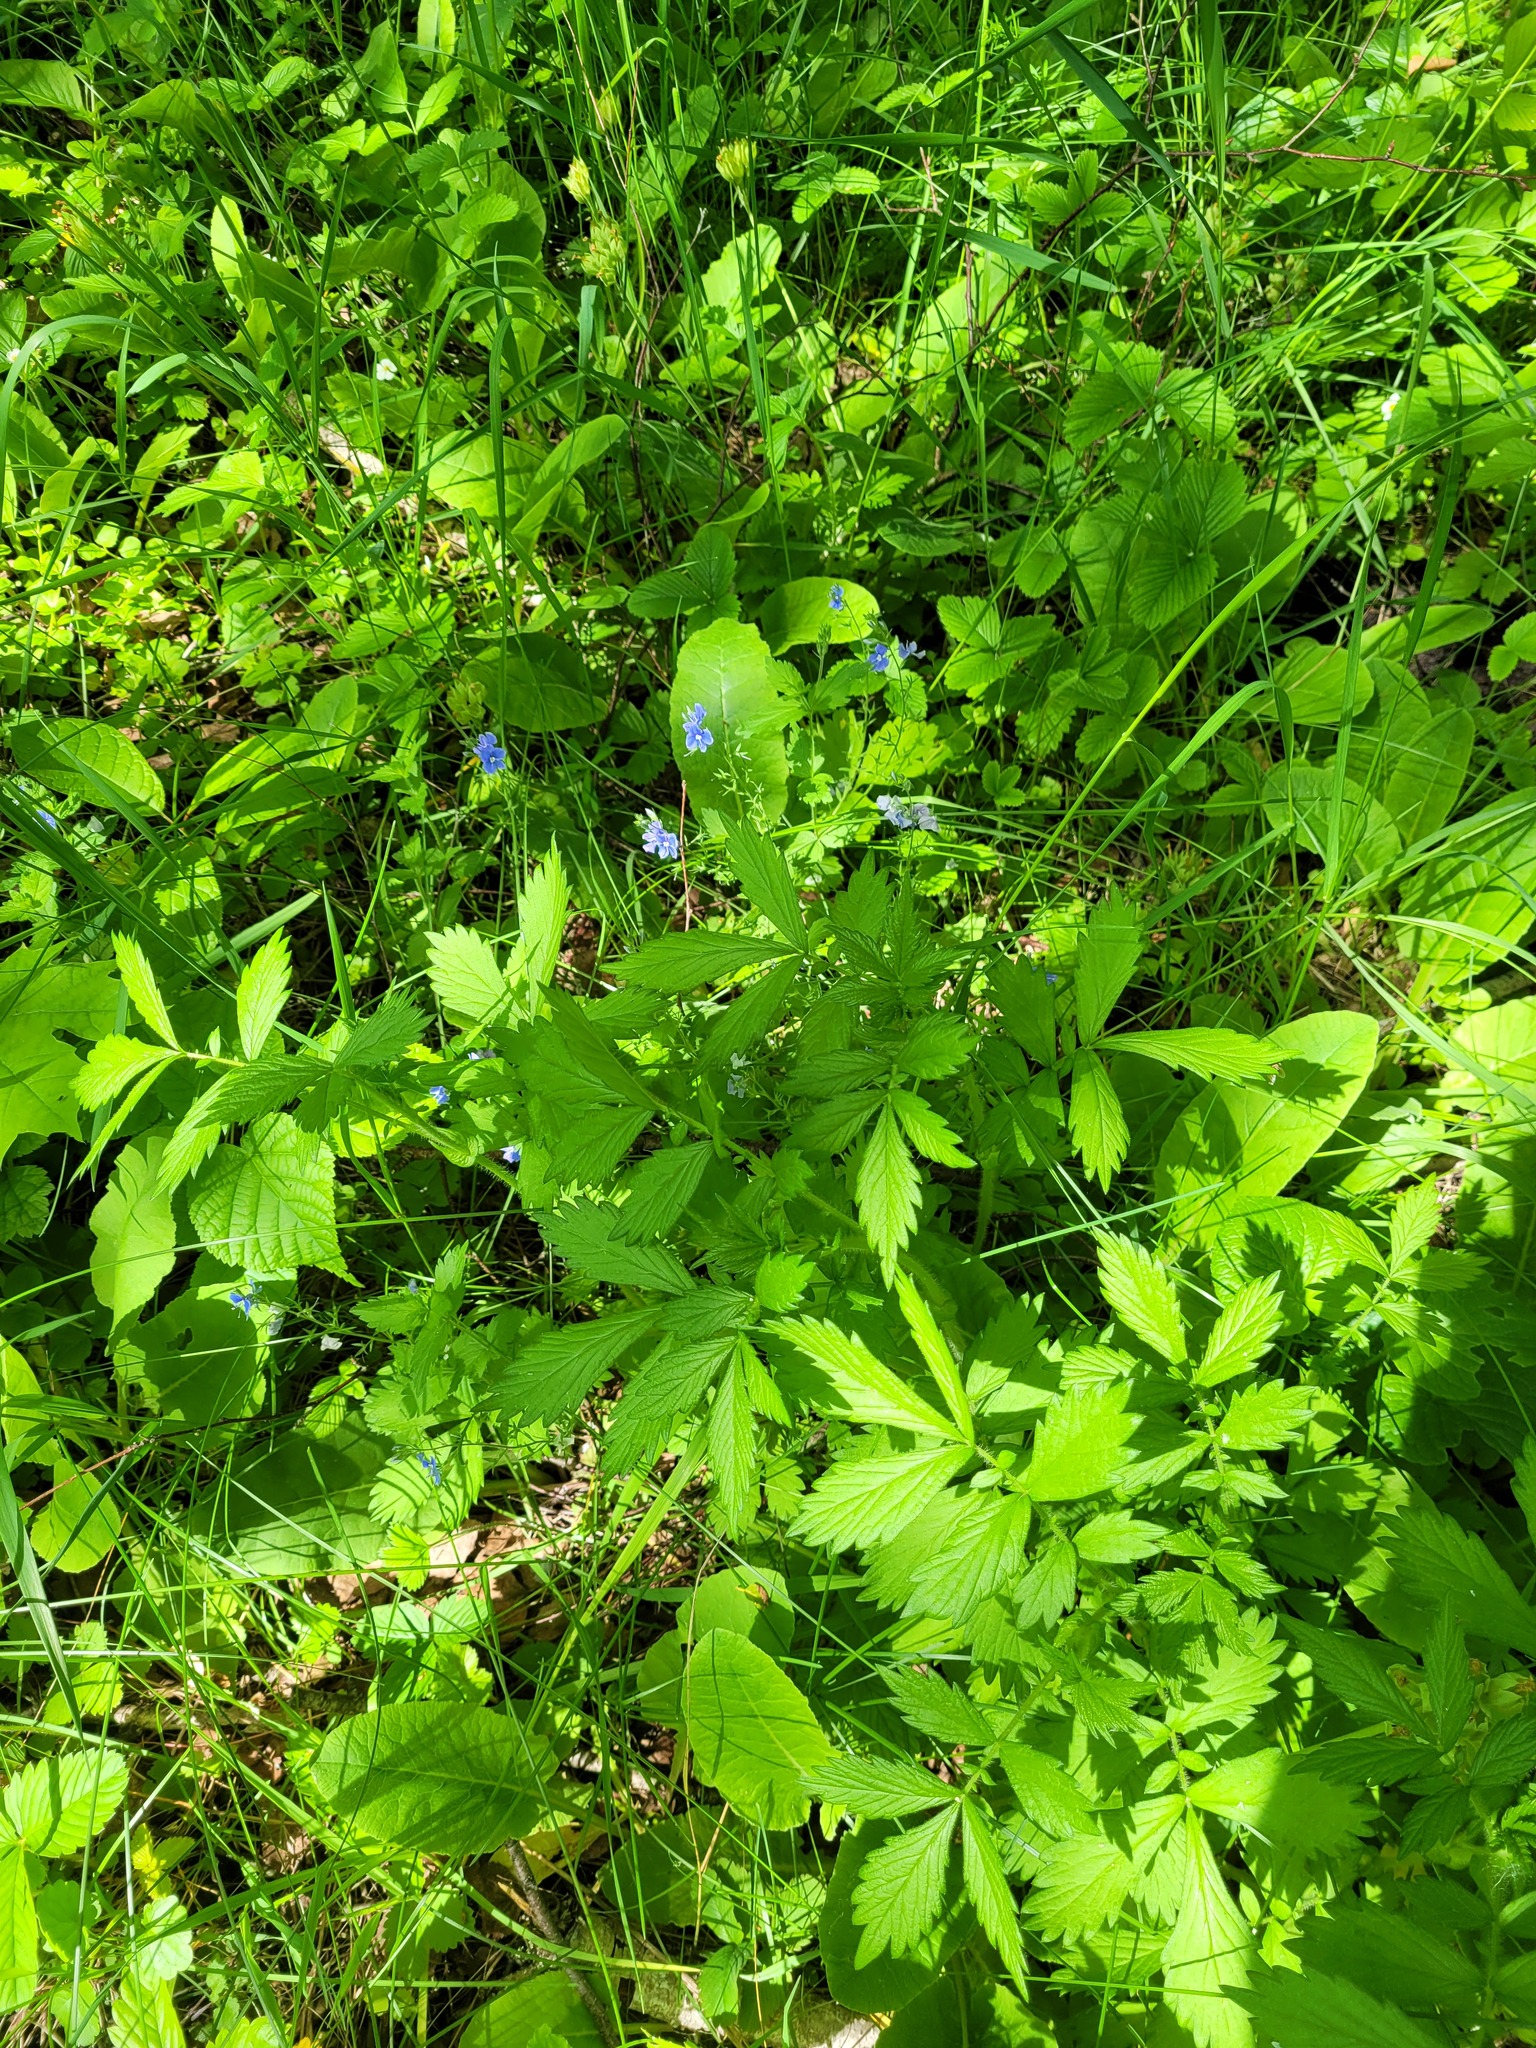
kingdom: Plantae
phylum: Tracheophyta
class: Magnoliopsida
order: Rosales
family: Rosaceae
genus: Agrimonia
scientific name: Agrimonia pilosa
